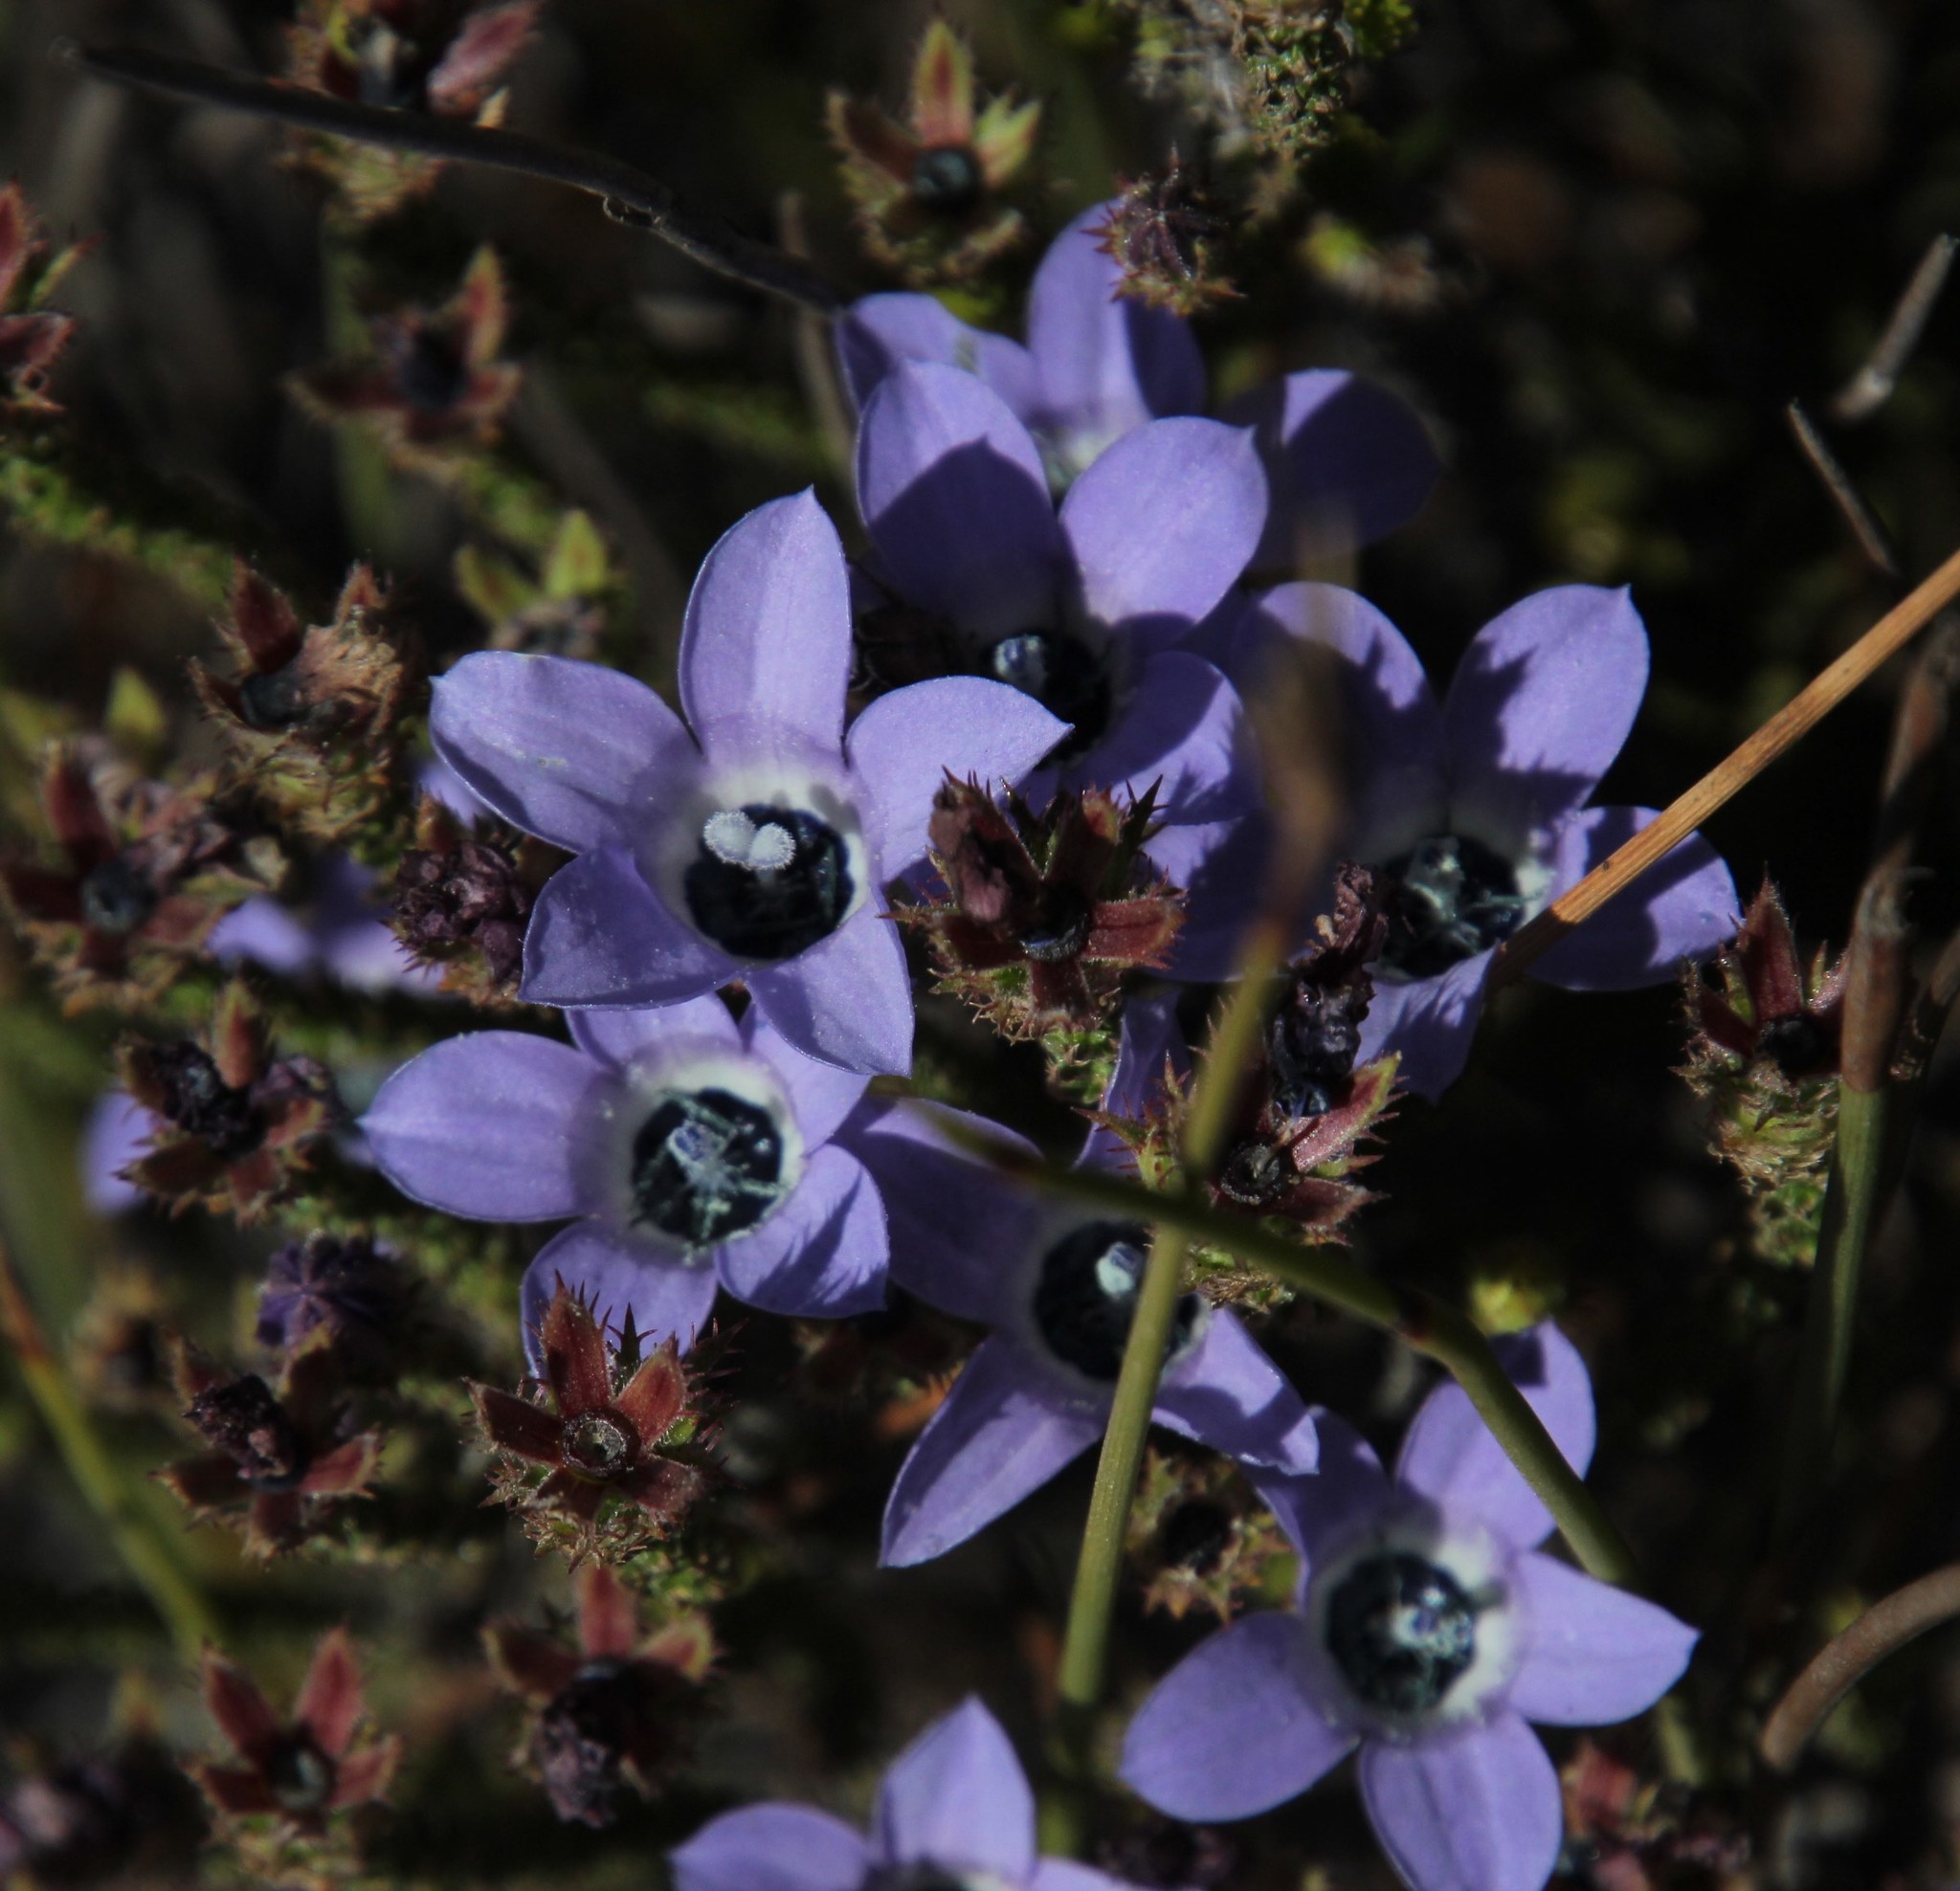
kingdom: Plantae
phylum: Tracheophyta
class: Magnoliopsida
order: Asterales
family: Campanulaceae
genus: Roella
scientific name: Roella triflora
